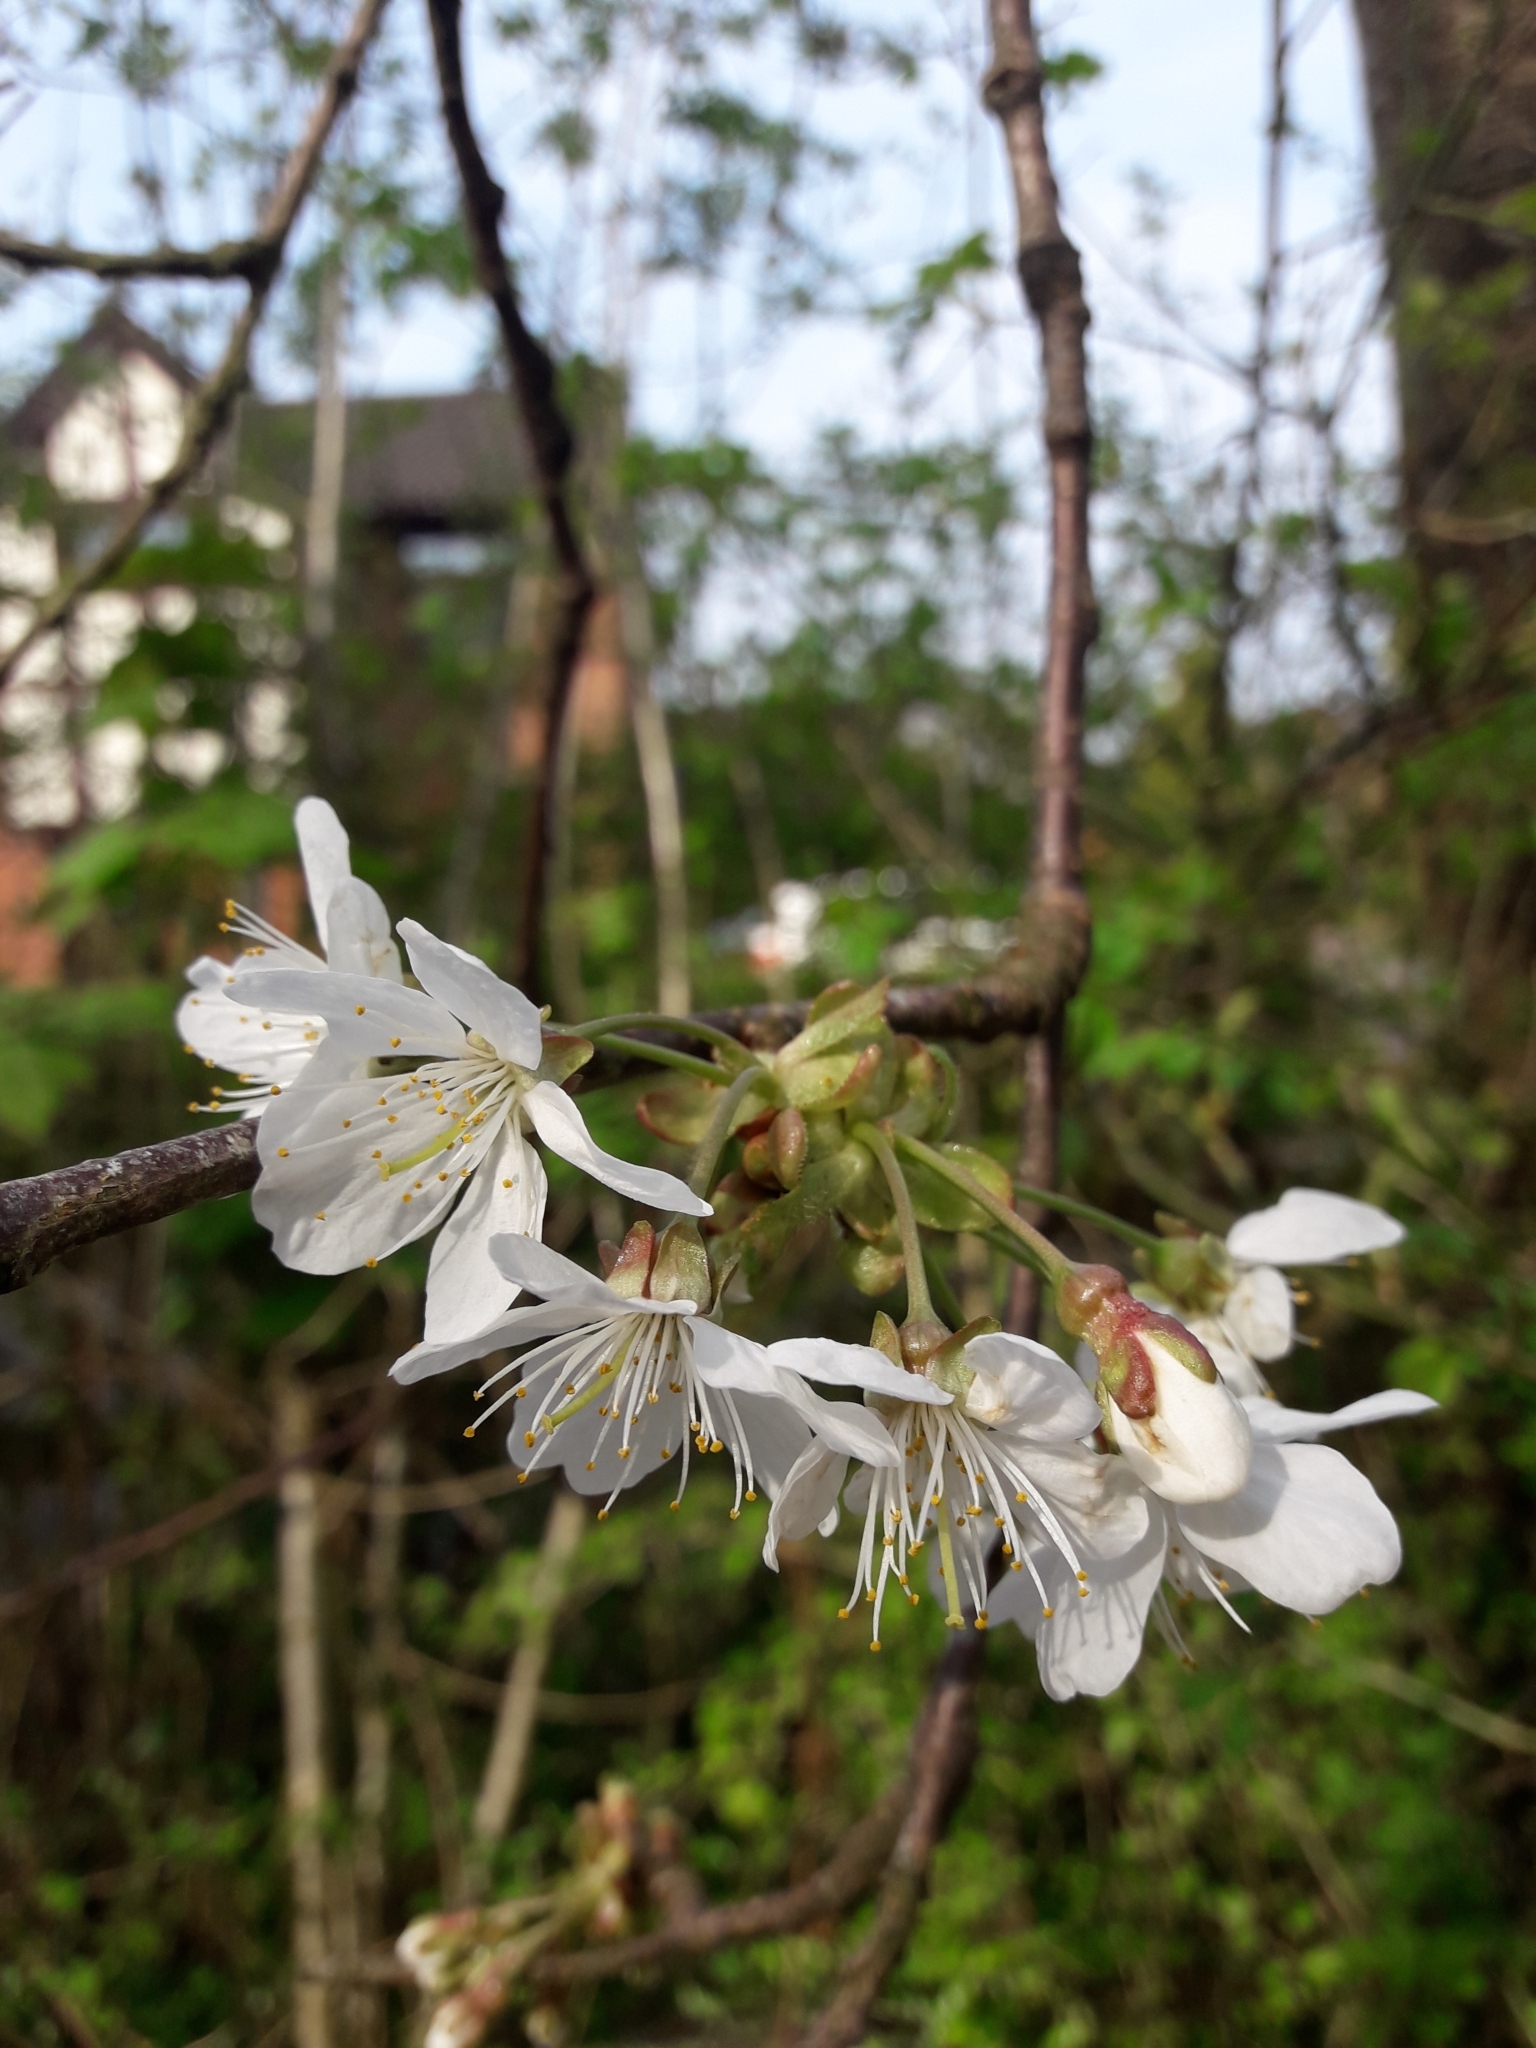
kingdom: Plantae
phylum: Tracheophyta
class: Magnoliopsida
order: Rosales
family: Rosaceae
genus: Prunus
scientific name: Prunus avium
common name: Sweet cherry
